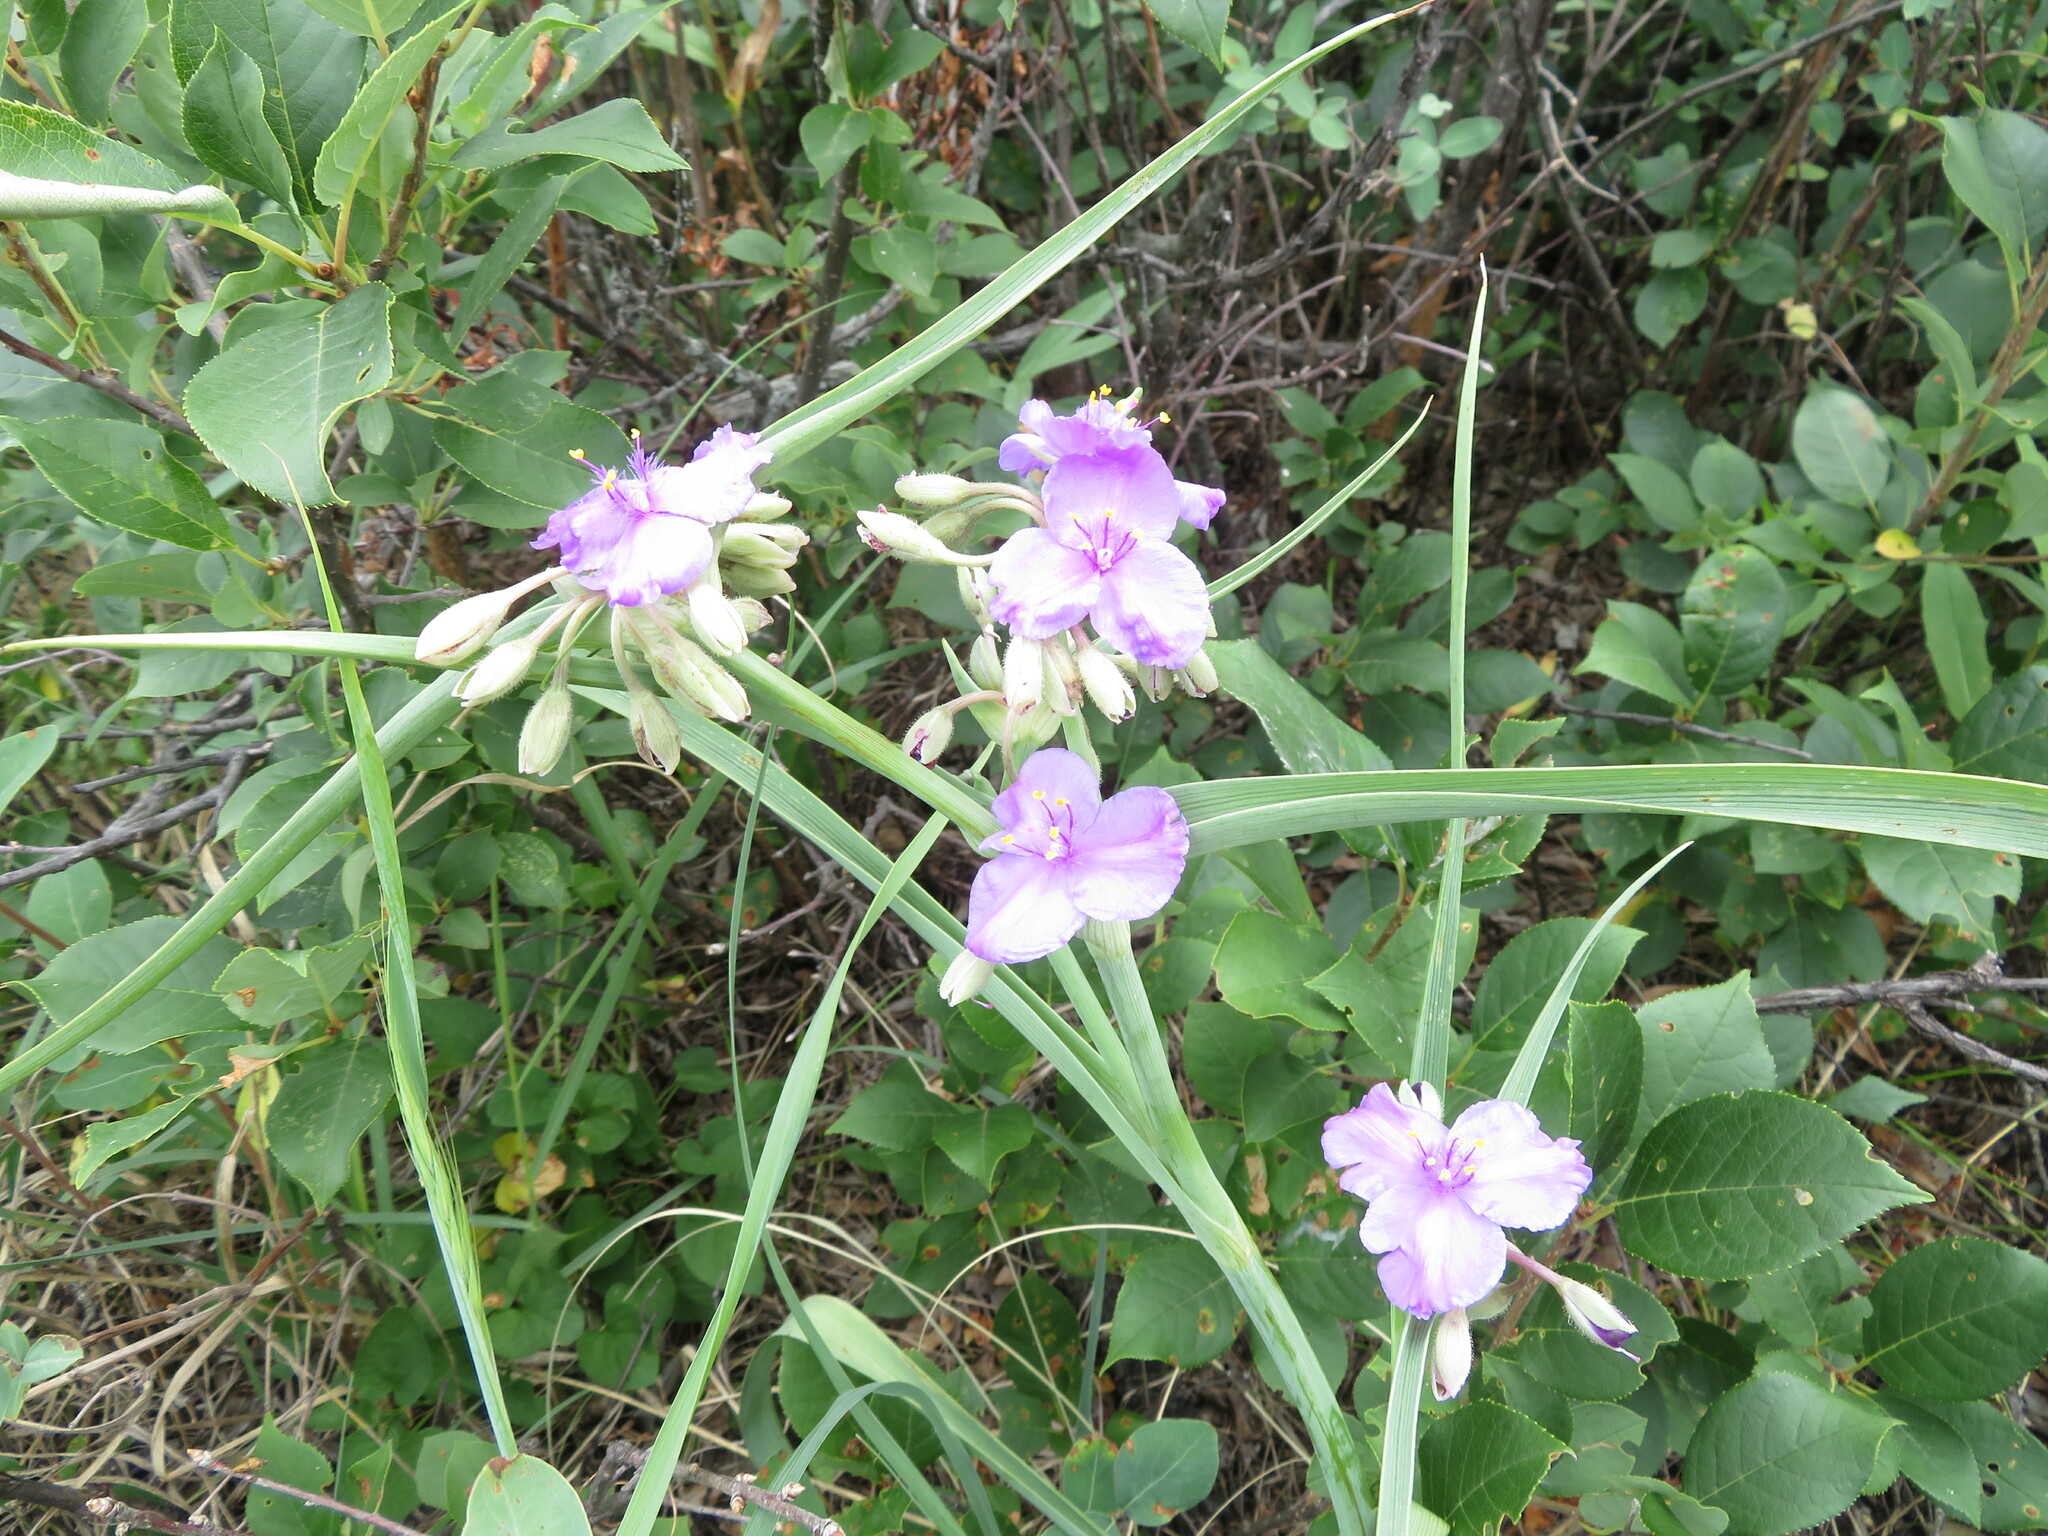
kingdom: Plantae
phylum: Tracheophyta
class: Liliopsida
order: Commelinales
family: Commelinaceae
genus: Tradescantia
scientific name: Tradescantia occidentalis
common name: Prairie spiderwort
